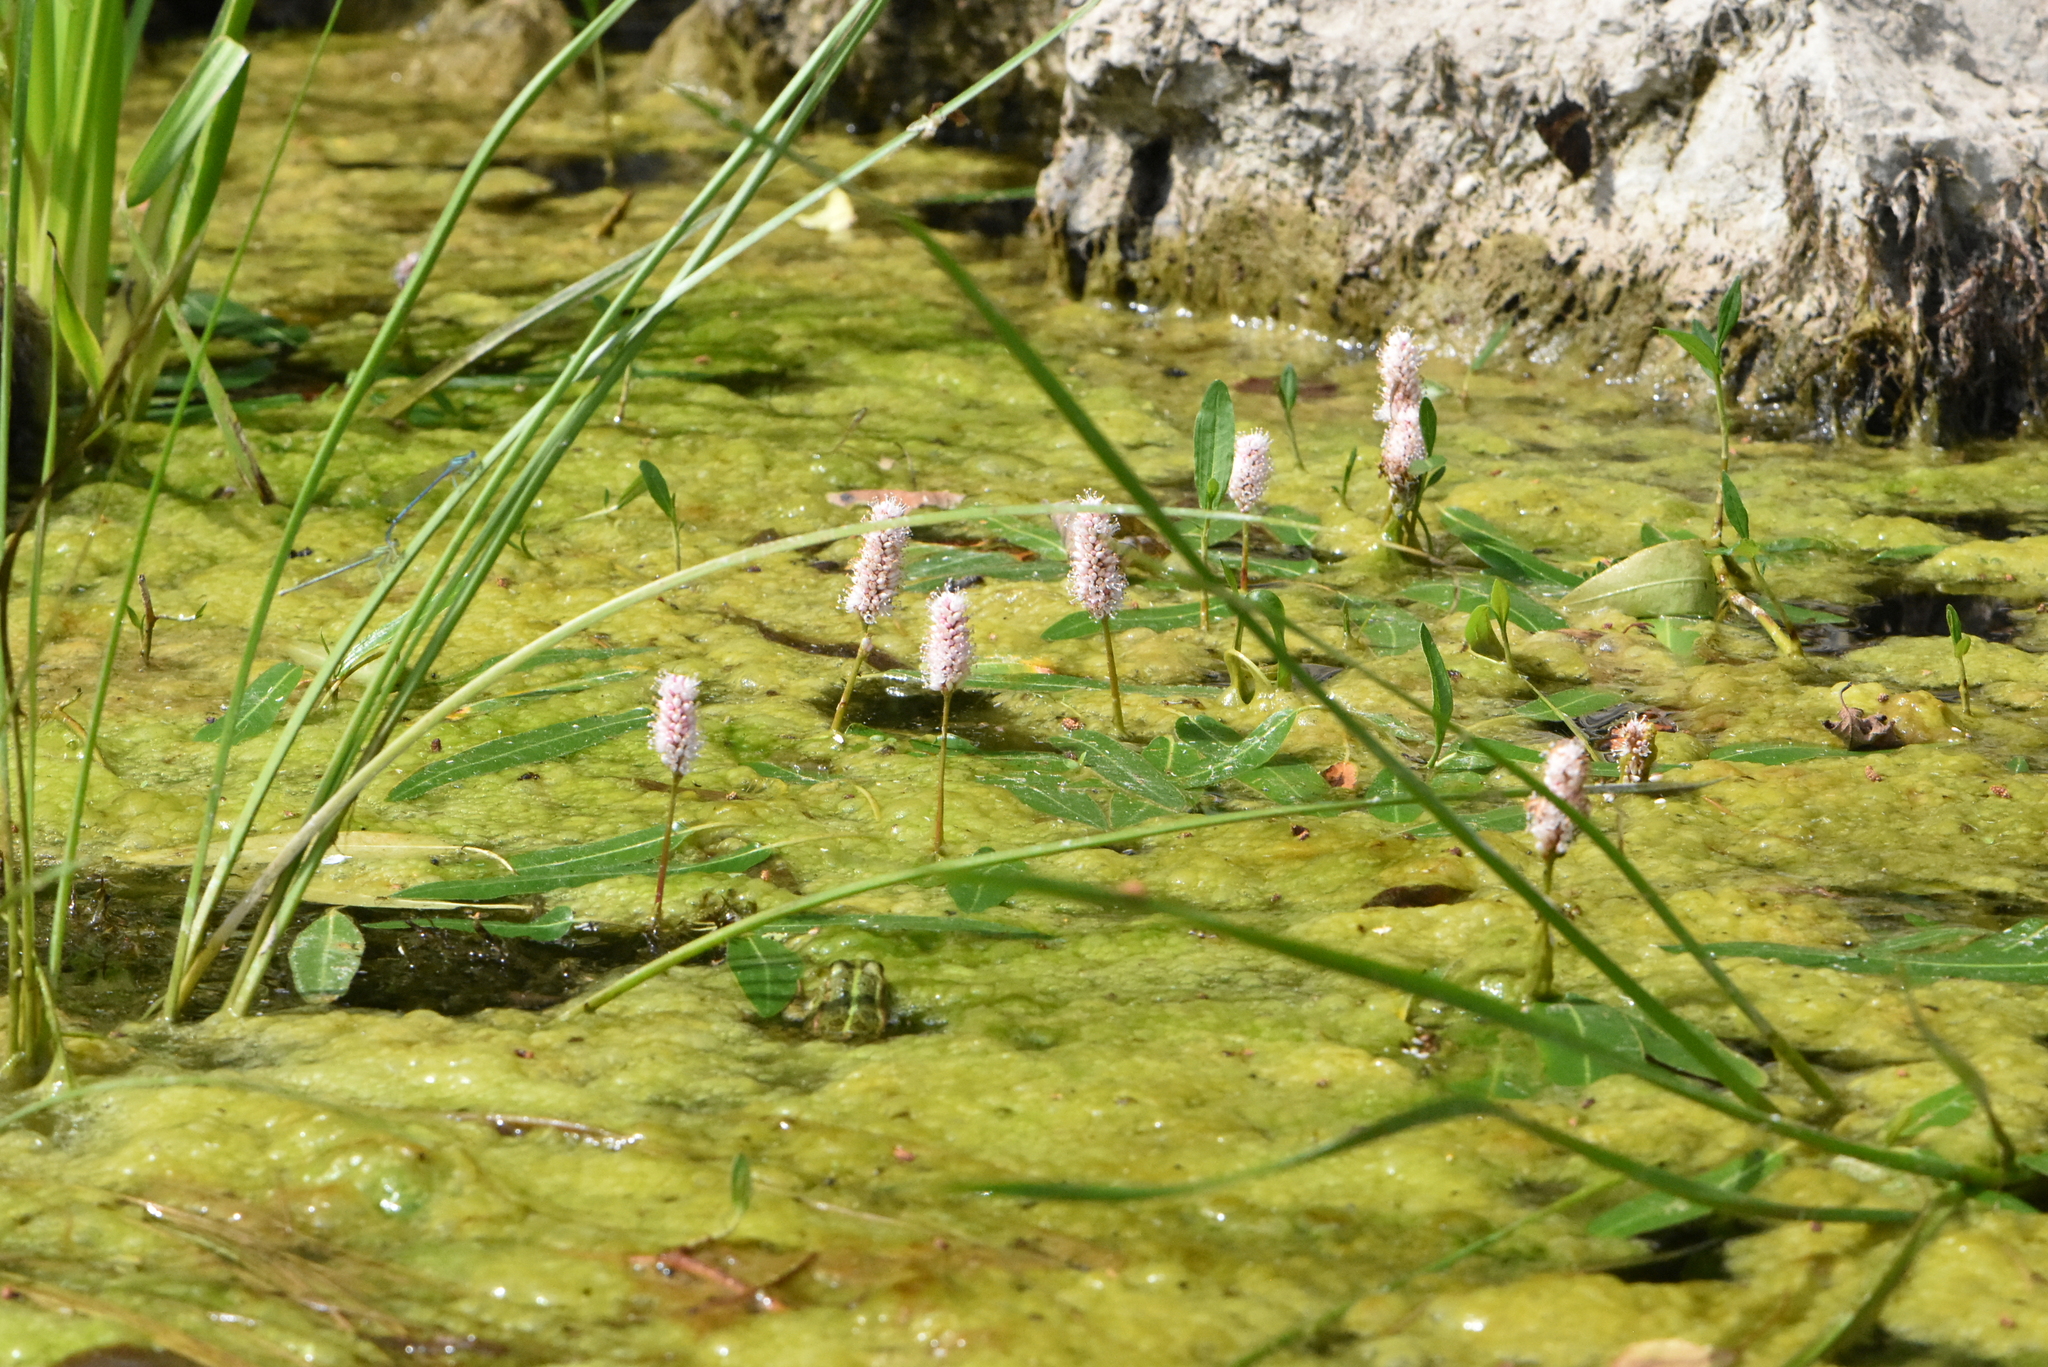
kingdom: Plantae
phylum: Tracheophyta
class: Magnoliopsida
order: Caryophyllales
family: Polygonaceae
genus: Persicaria
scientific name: Persicaria amphibia
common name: Amphibious bistort
